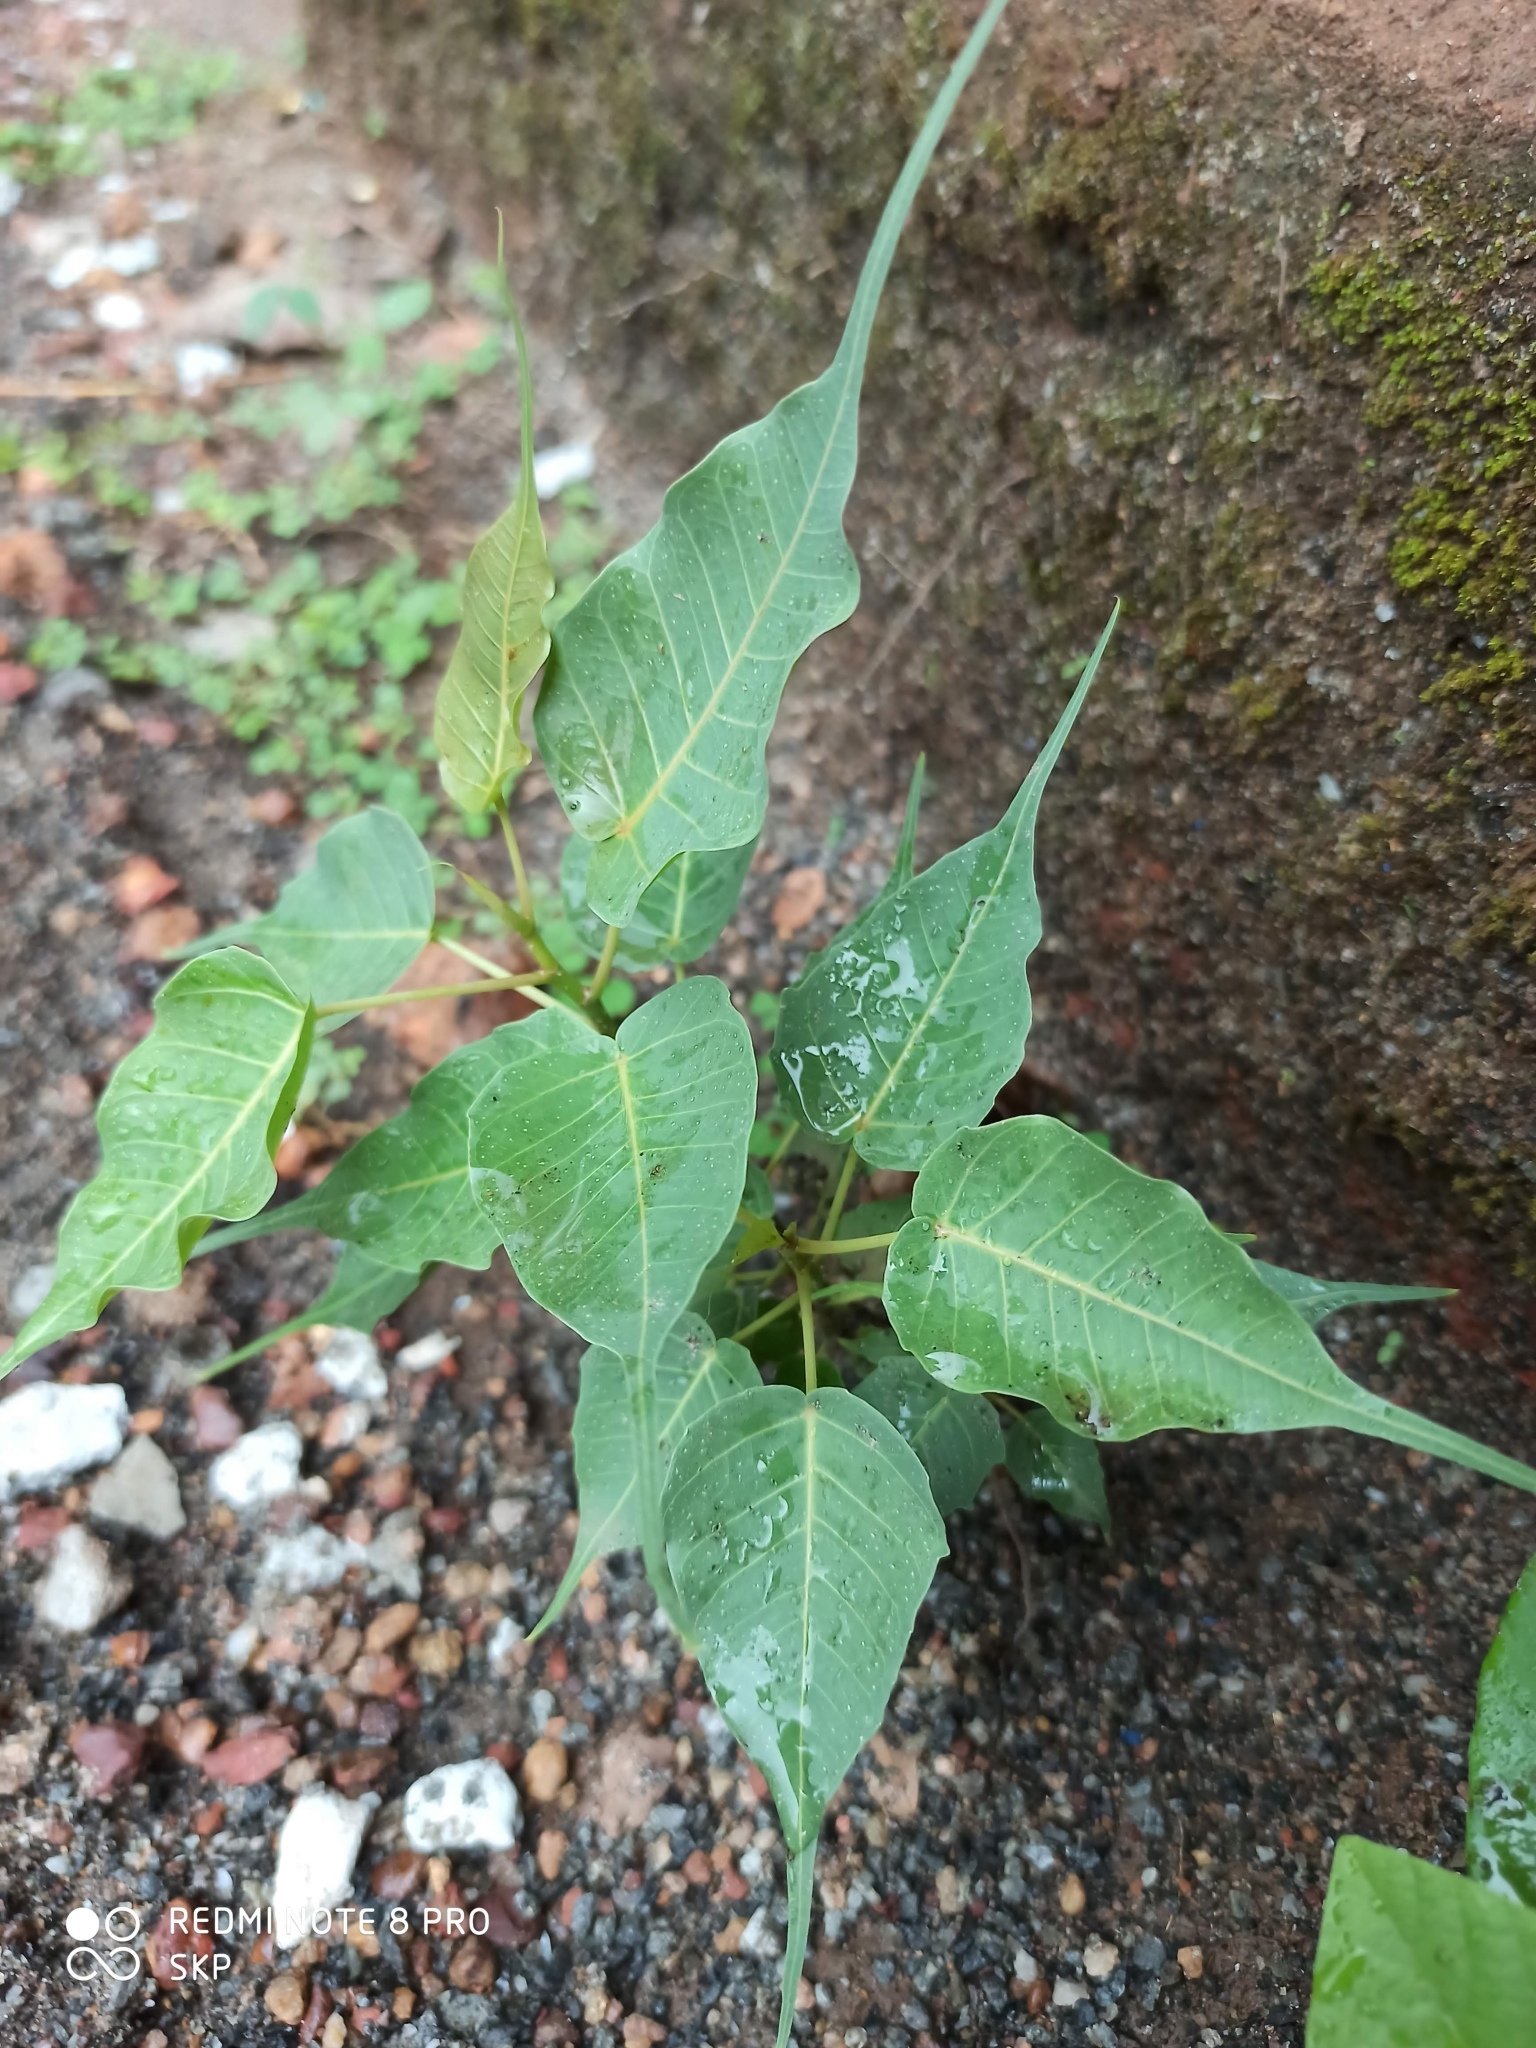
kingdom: Plantae
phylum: Tracheophyta
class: Magnoliopsida
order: Rosales
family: Moraceae
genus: Ficus
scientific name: Ficus religiosa
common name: Bodhi tree
